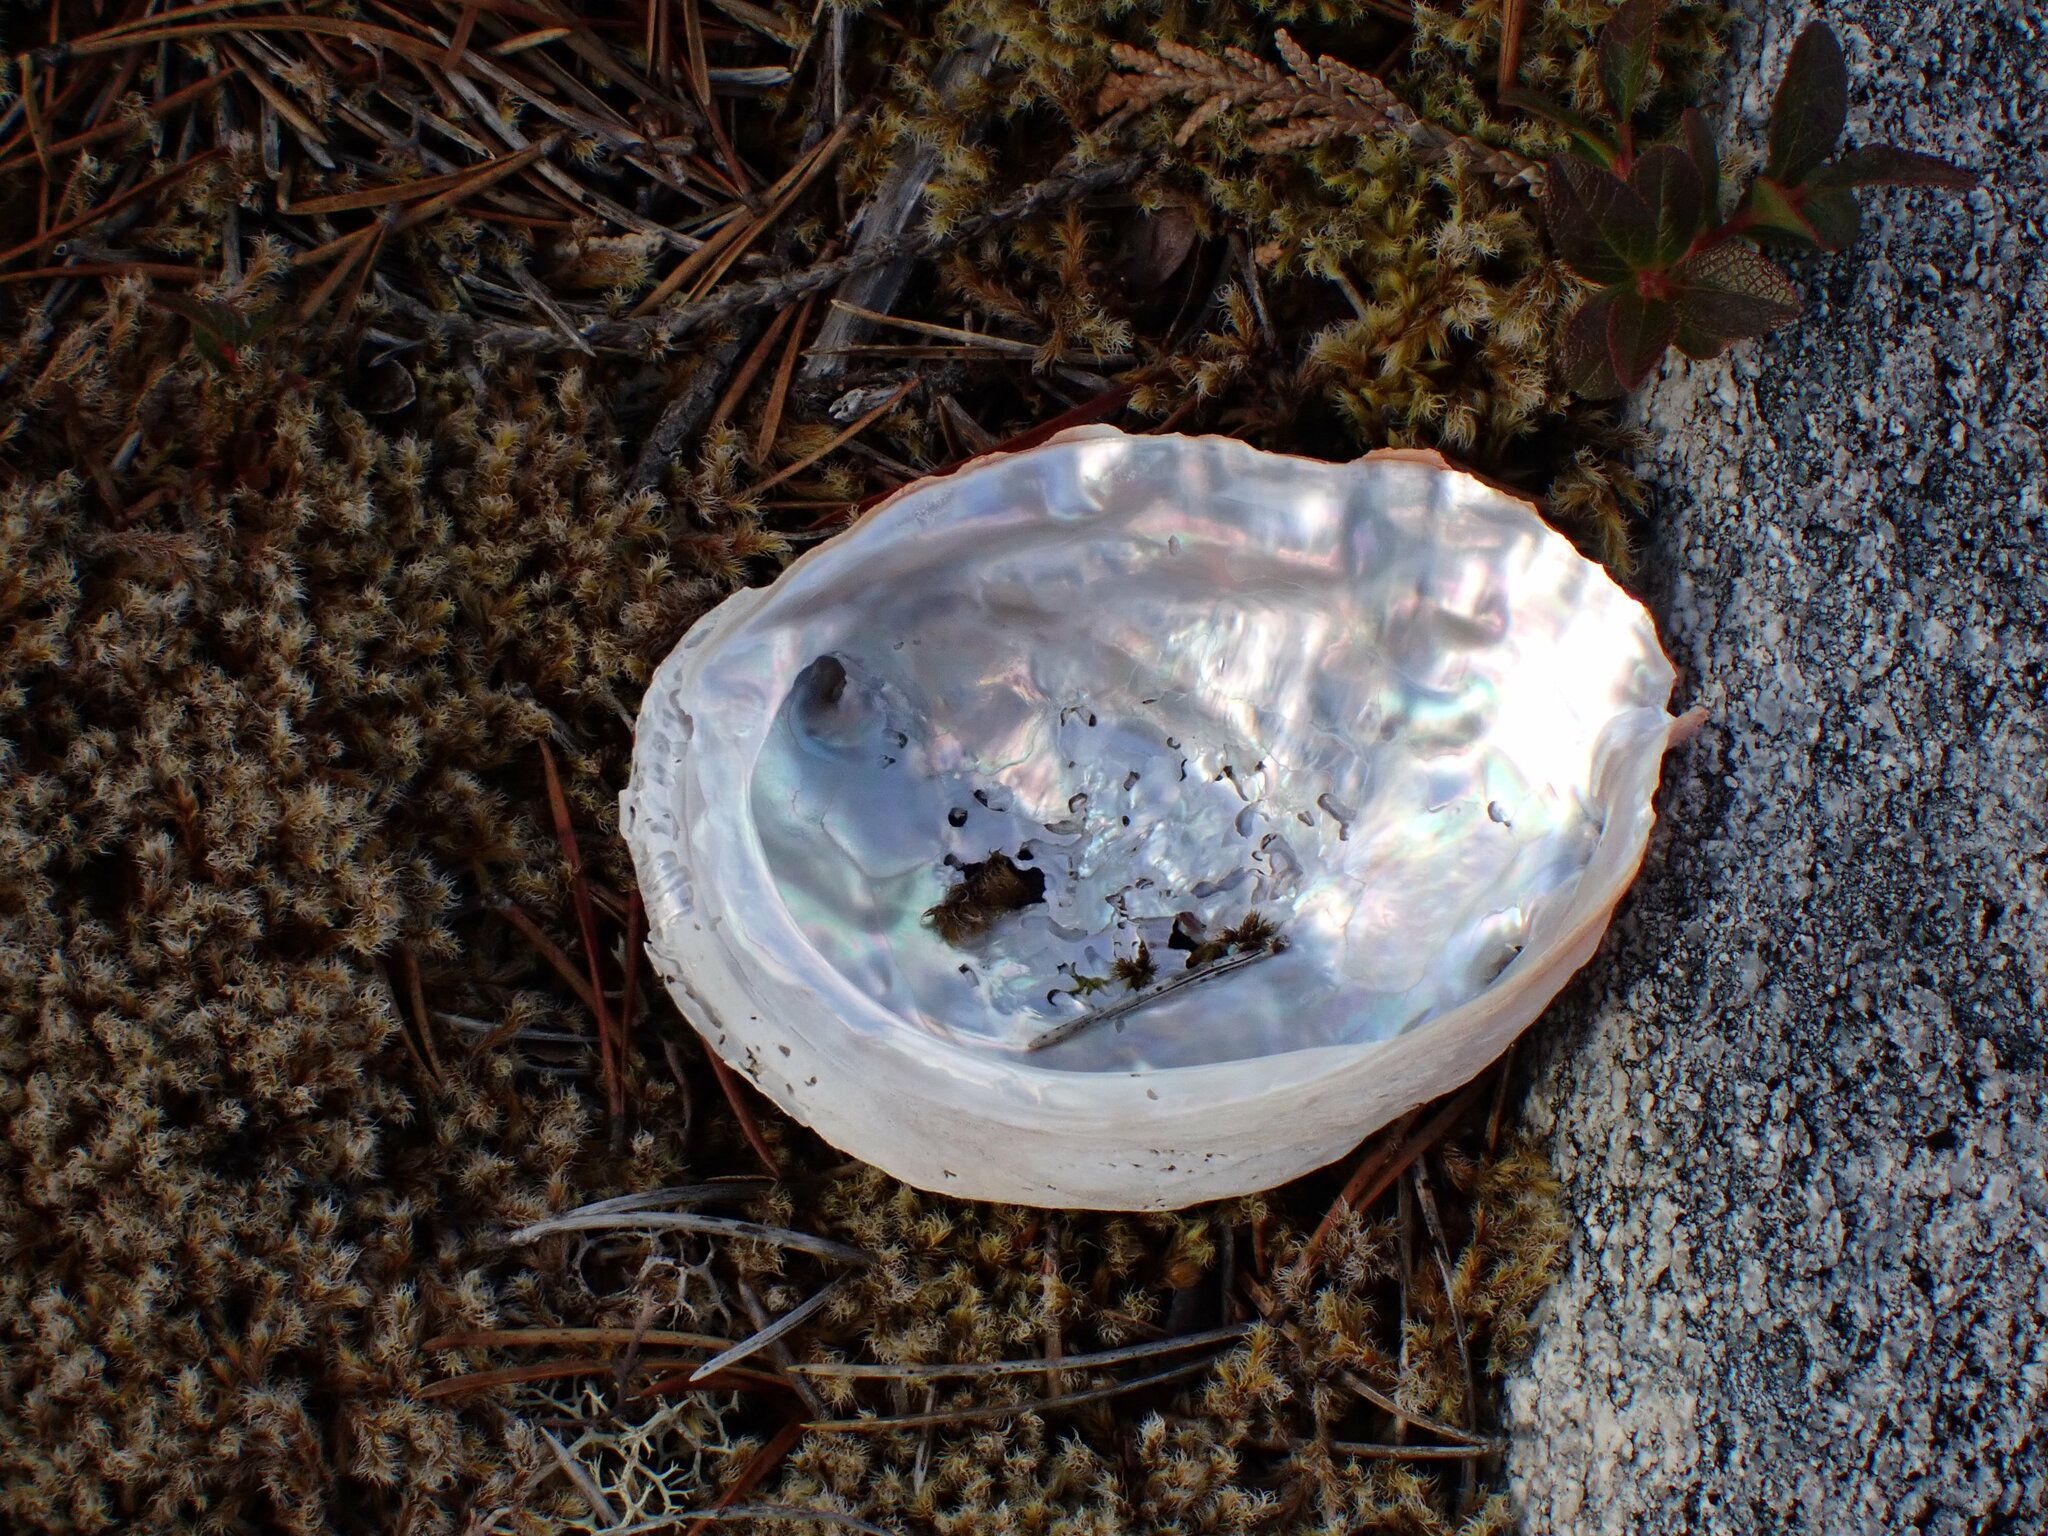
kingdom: Animalia
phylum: Mollusca
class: Gastropoda
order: Lepetellida
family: Haliotidae
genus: Haliotis
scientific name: Haliotis kamtschatkana
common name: Pinto abalone
